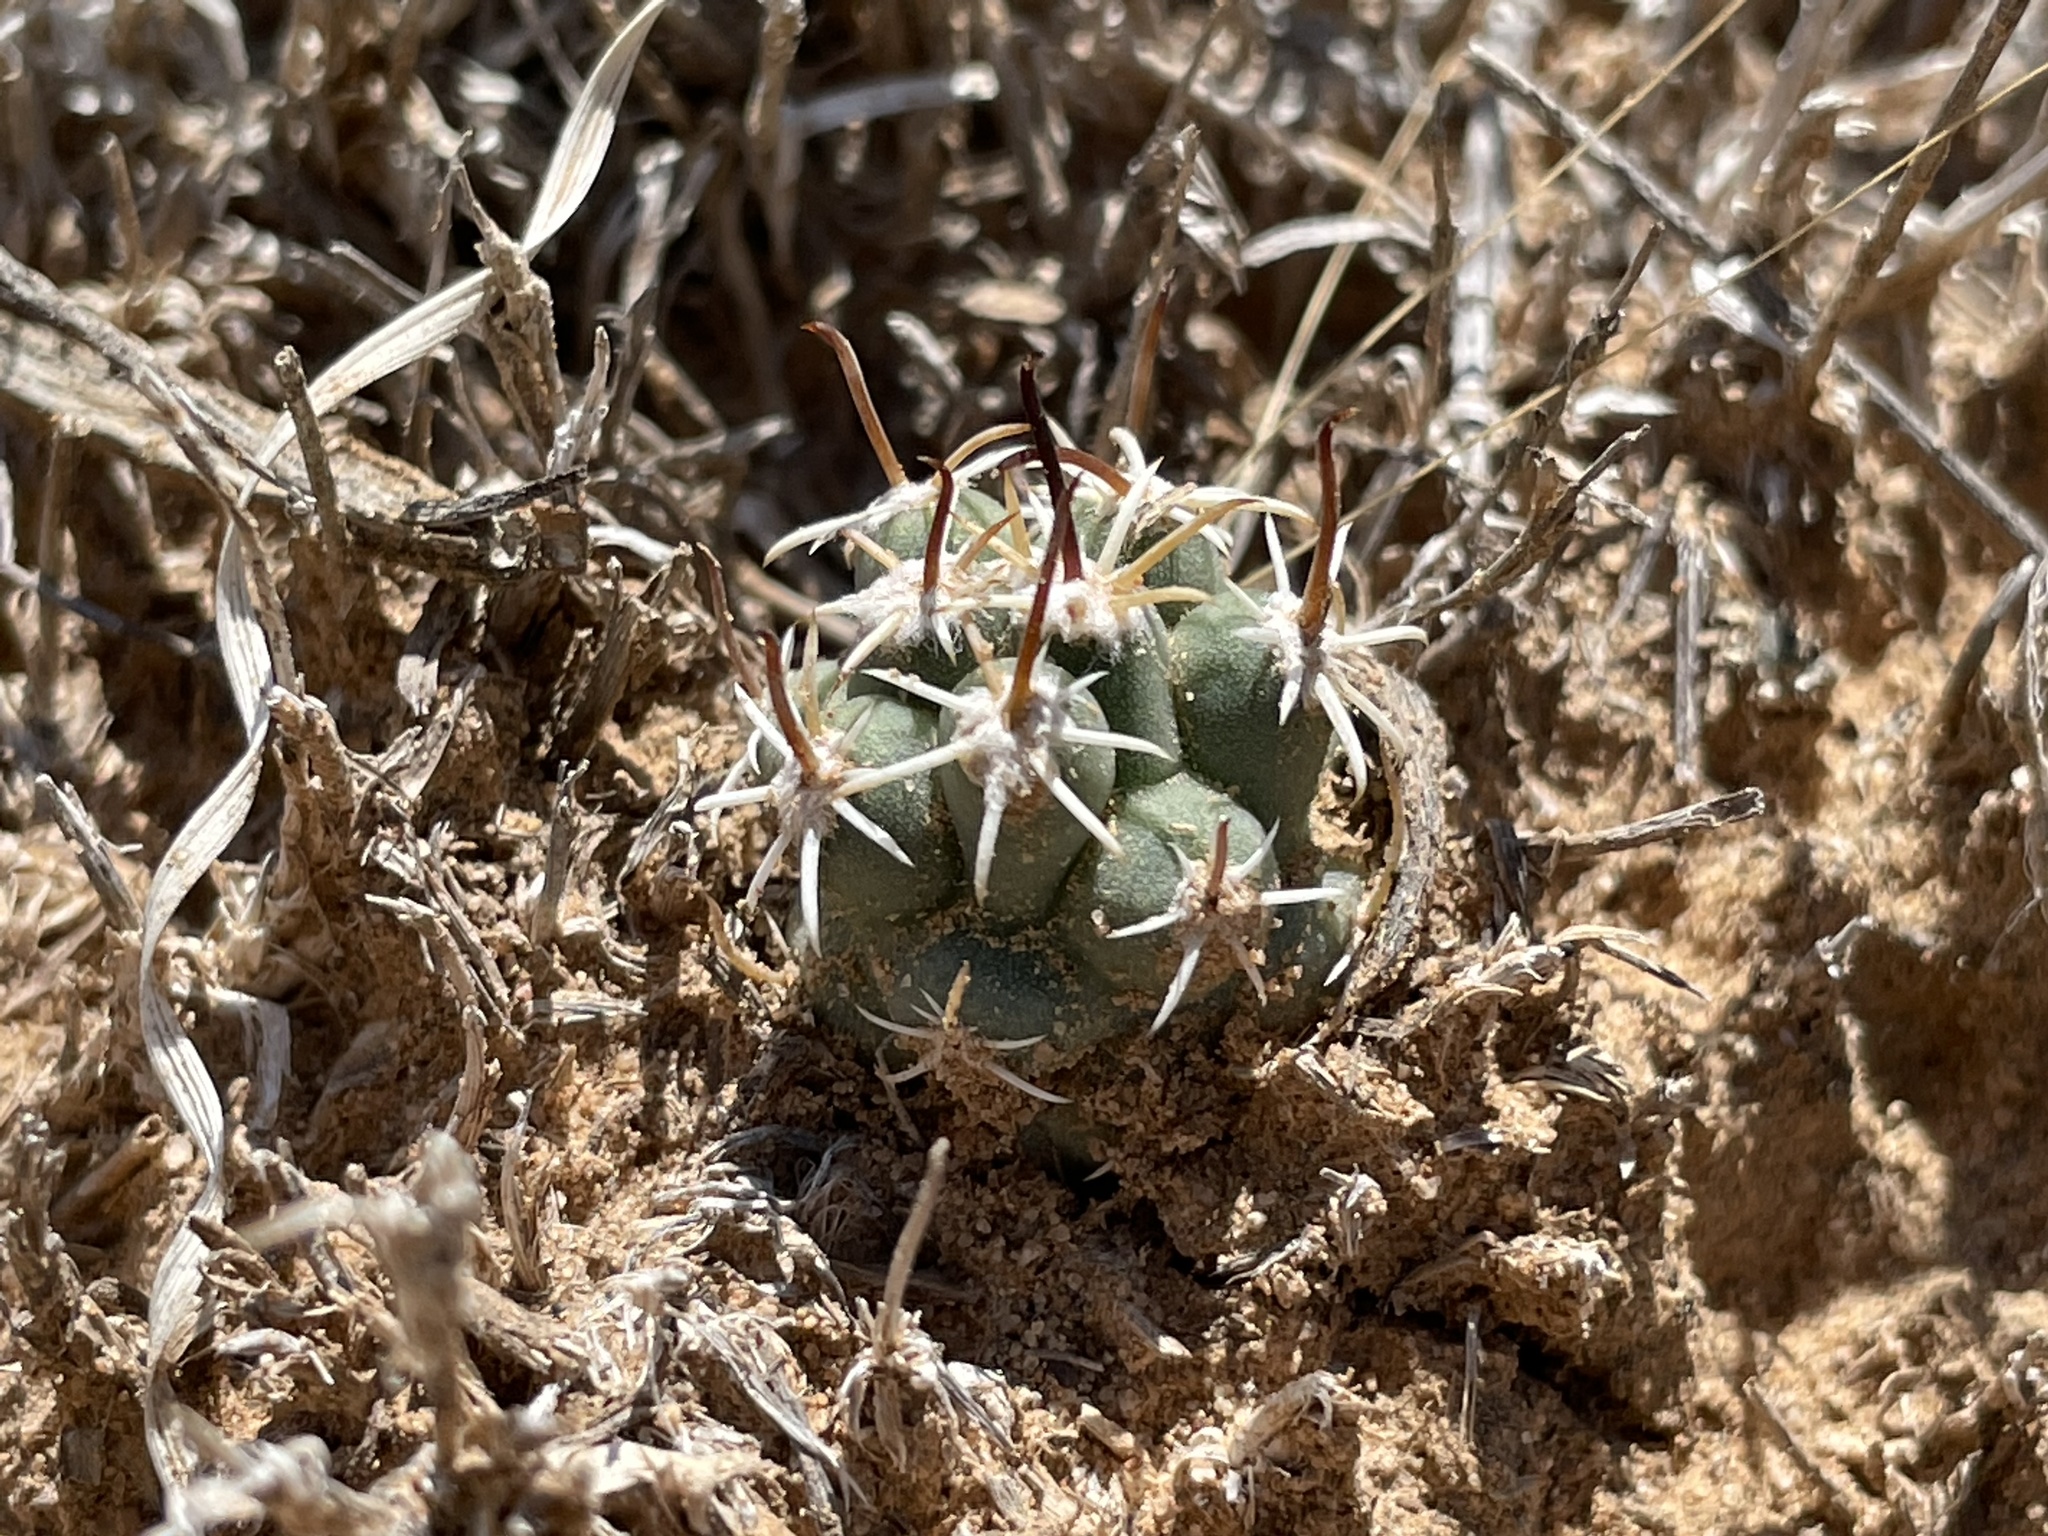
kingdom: Plantae
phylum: Tracheophyta
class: Magnoliopsida
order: Caryophyllales
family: Cactaceae
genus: Sclerocactus
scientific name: Sclerocactus cloverae
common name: Clover's eagle-claw cactus
